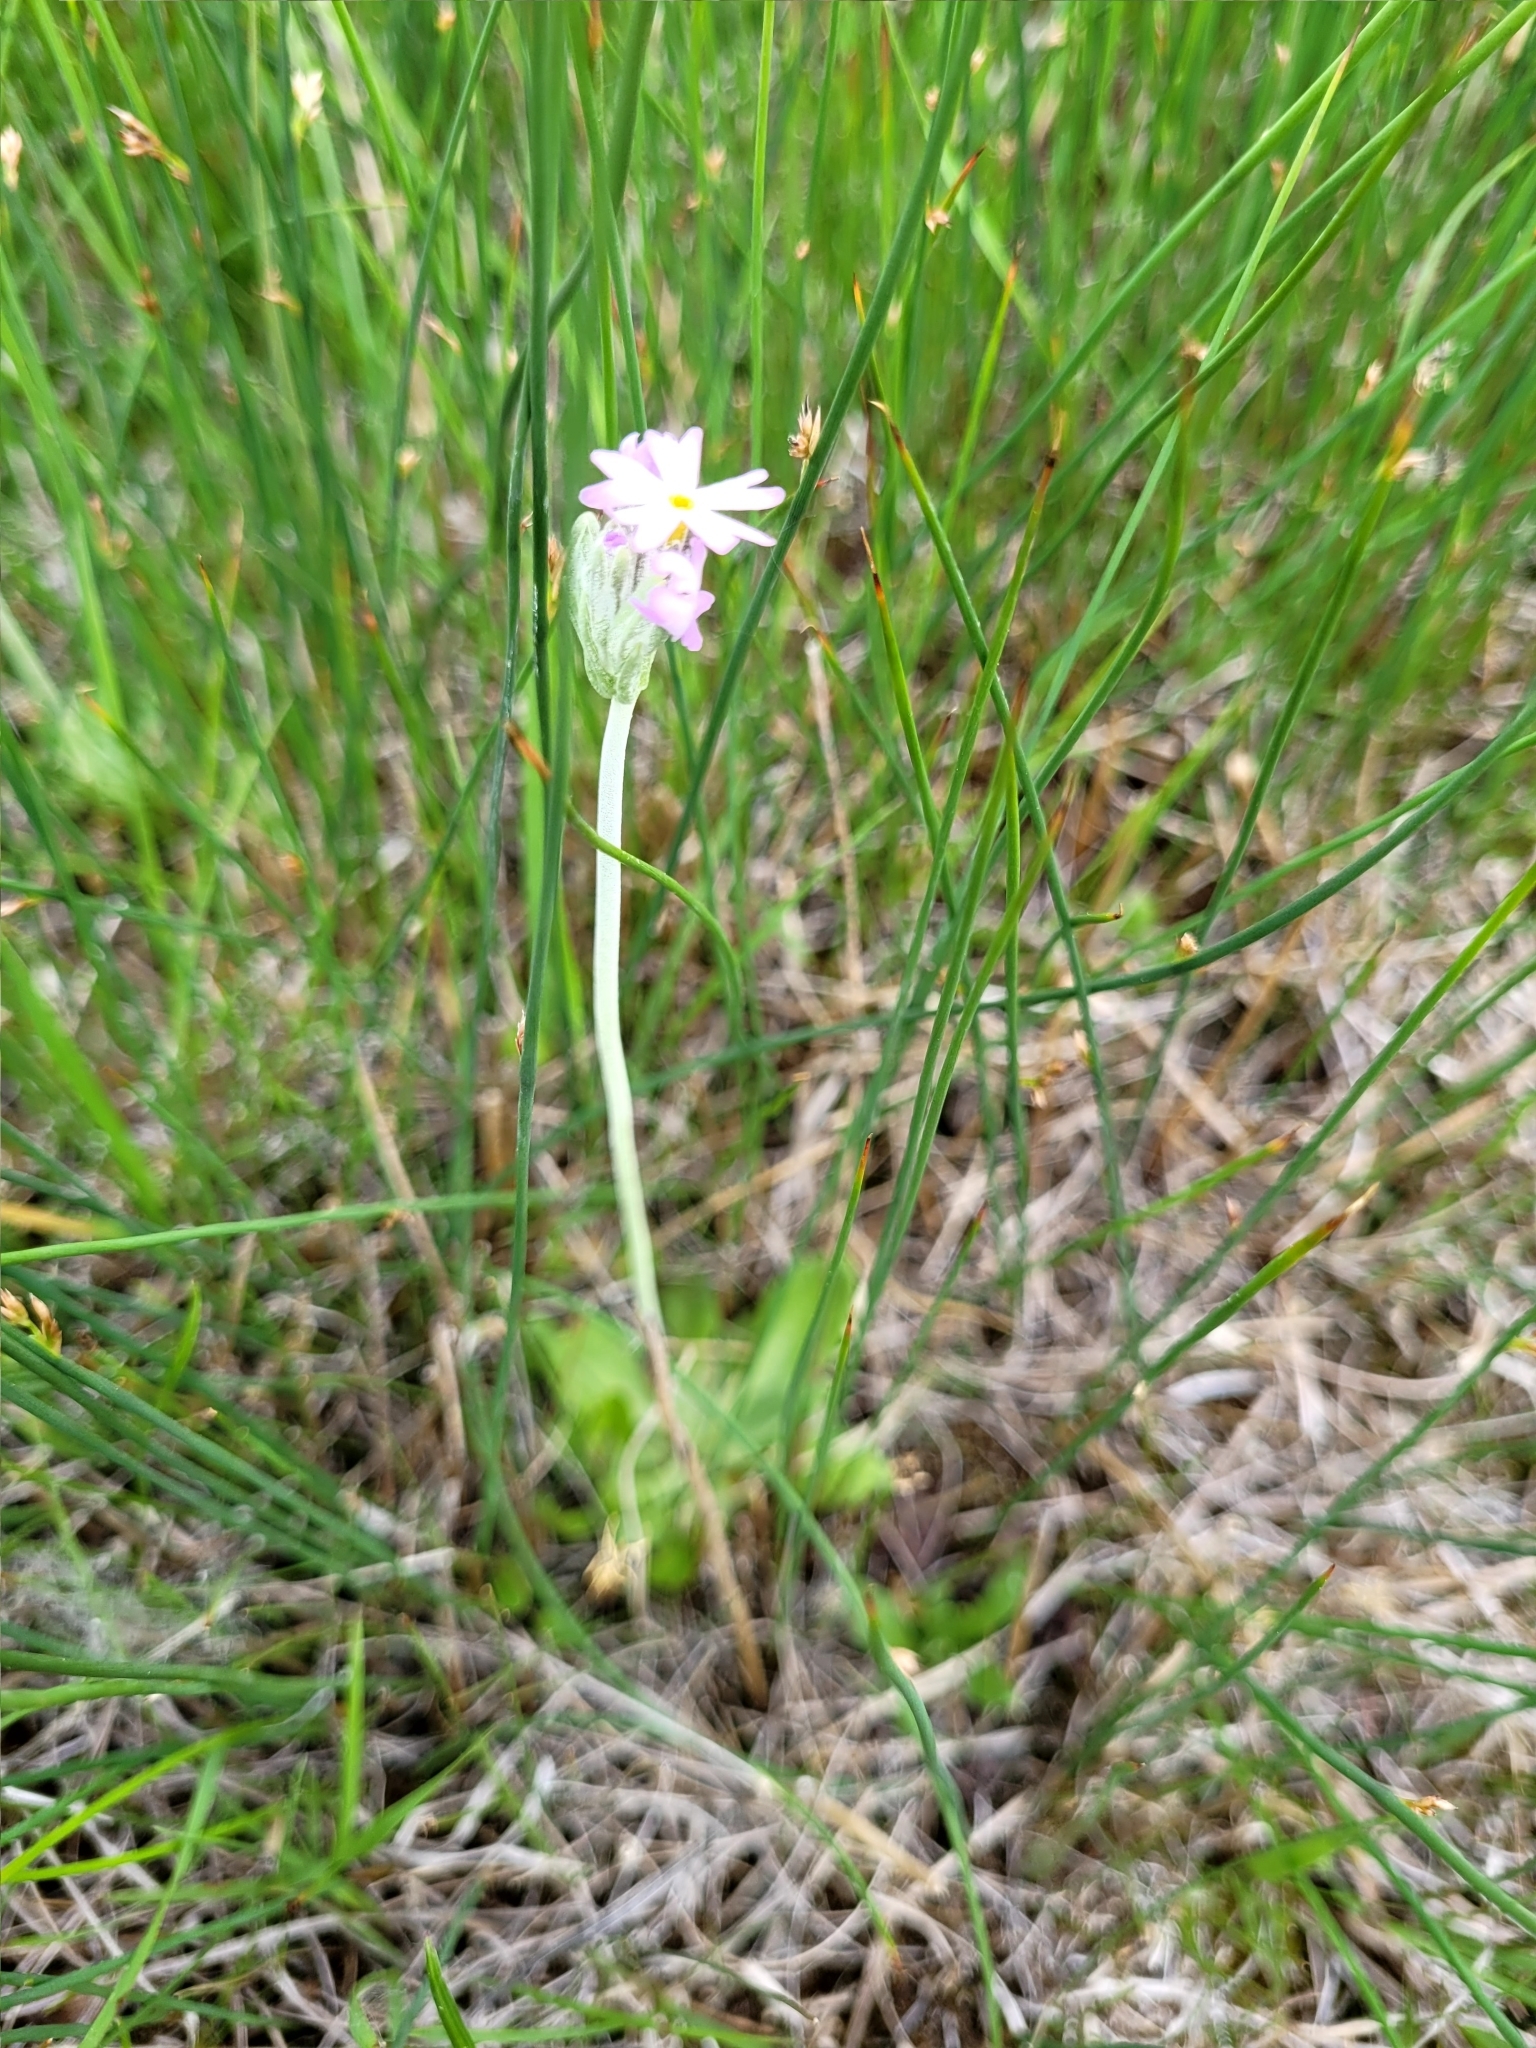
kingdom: Plantae
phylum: Tracheophyta
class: Magnoliopsida
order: Ericales
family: Primulaceae
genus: Primula
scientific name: Primula incana
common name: Hoary primrose
